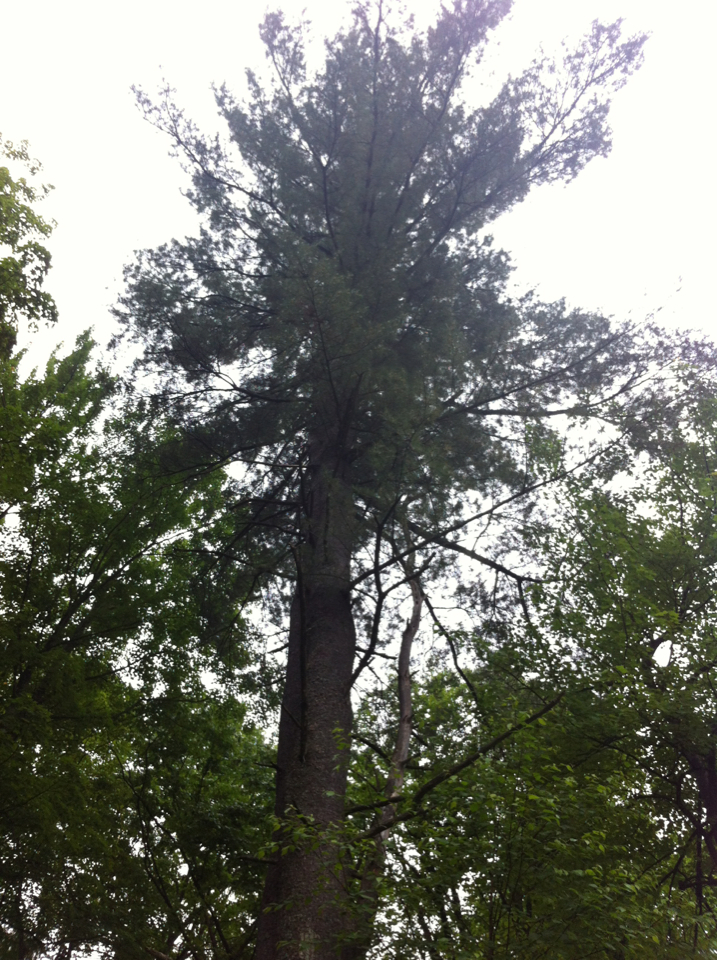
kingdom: Plantae
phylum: Tracheophyta
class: Pinopsida
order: Pinales
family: Pinaceae
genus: Pinus
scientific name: Pinus strobus
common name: Weymouth pine
